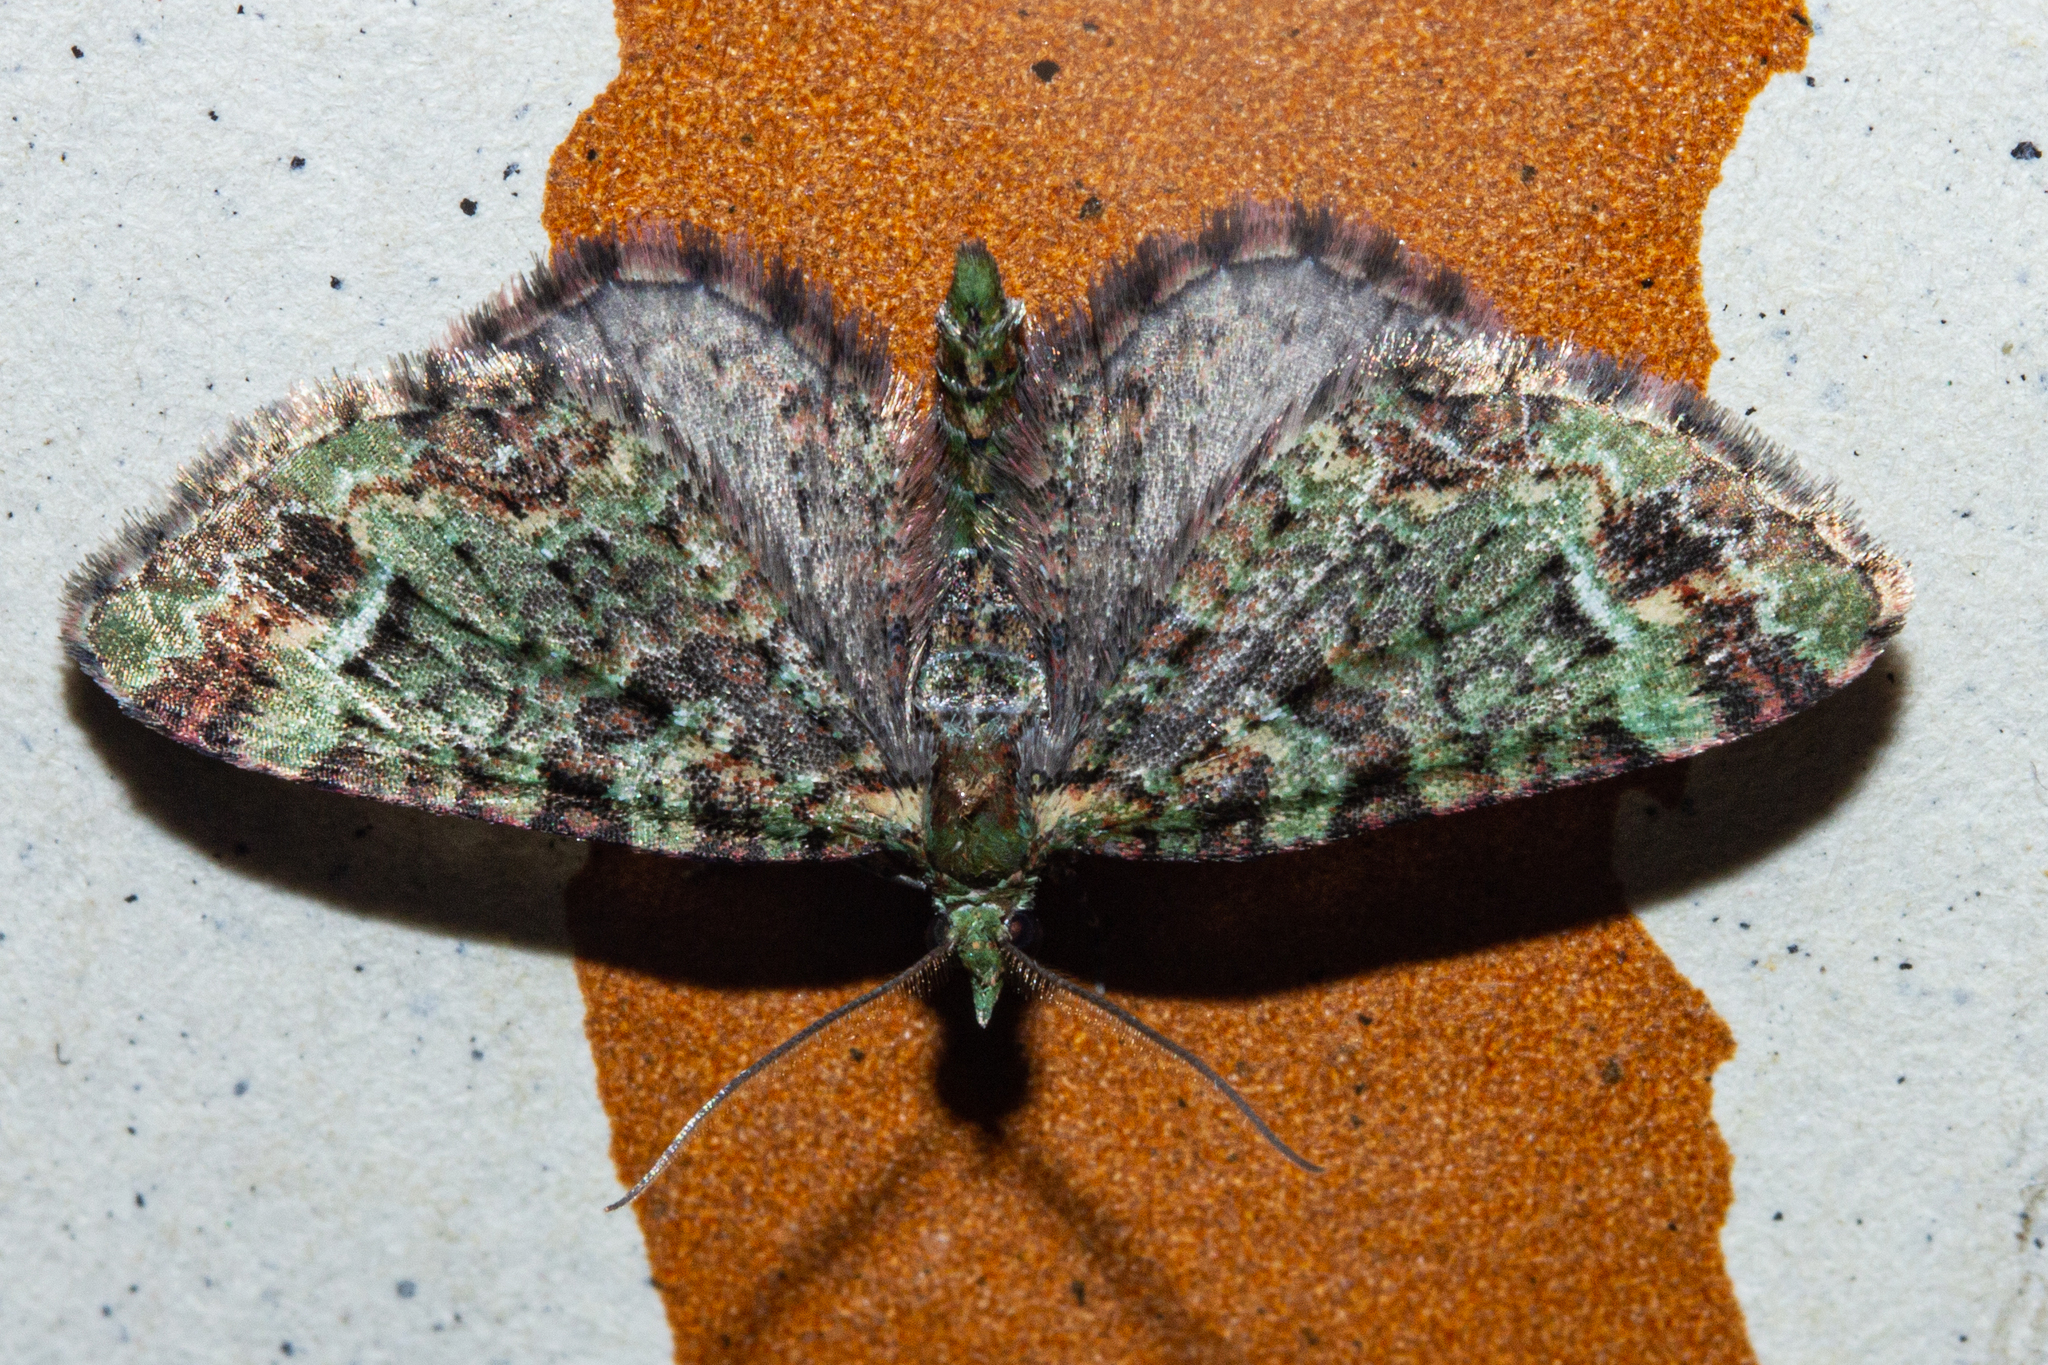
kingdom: Animalia
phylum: Arthropoda
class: Insecta
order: Lepidoptera
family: Geometridae
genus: Pasiphila
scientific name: Pasiphila bilineolata
